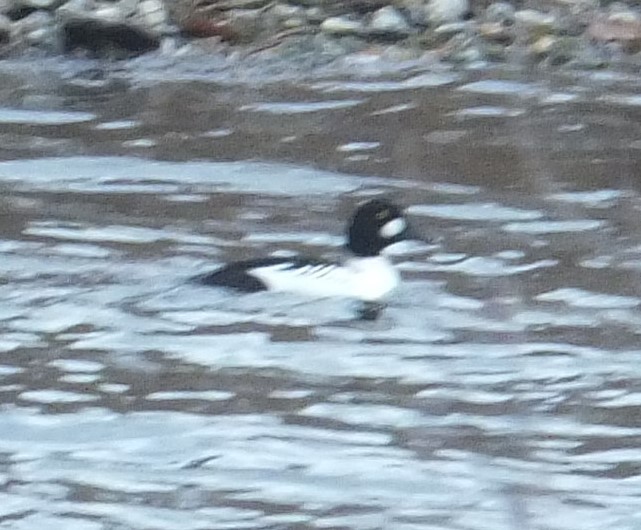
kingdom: Animalia
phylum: Chordata
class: Aves
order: Anseriformes
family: Anatidae
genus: Bucephala
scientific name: Bucephala clangula
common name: Common goldeneye
